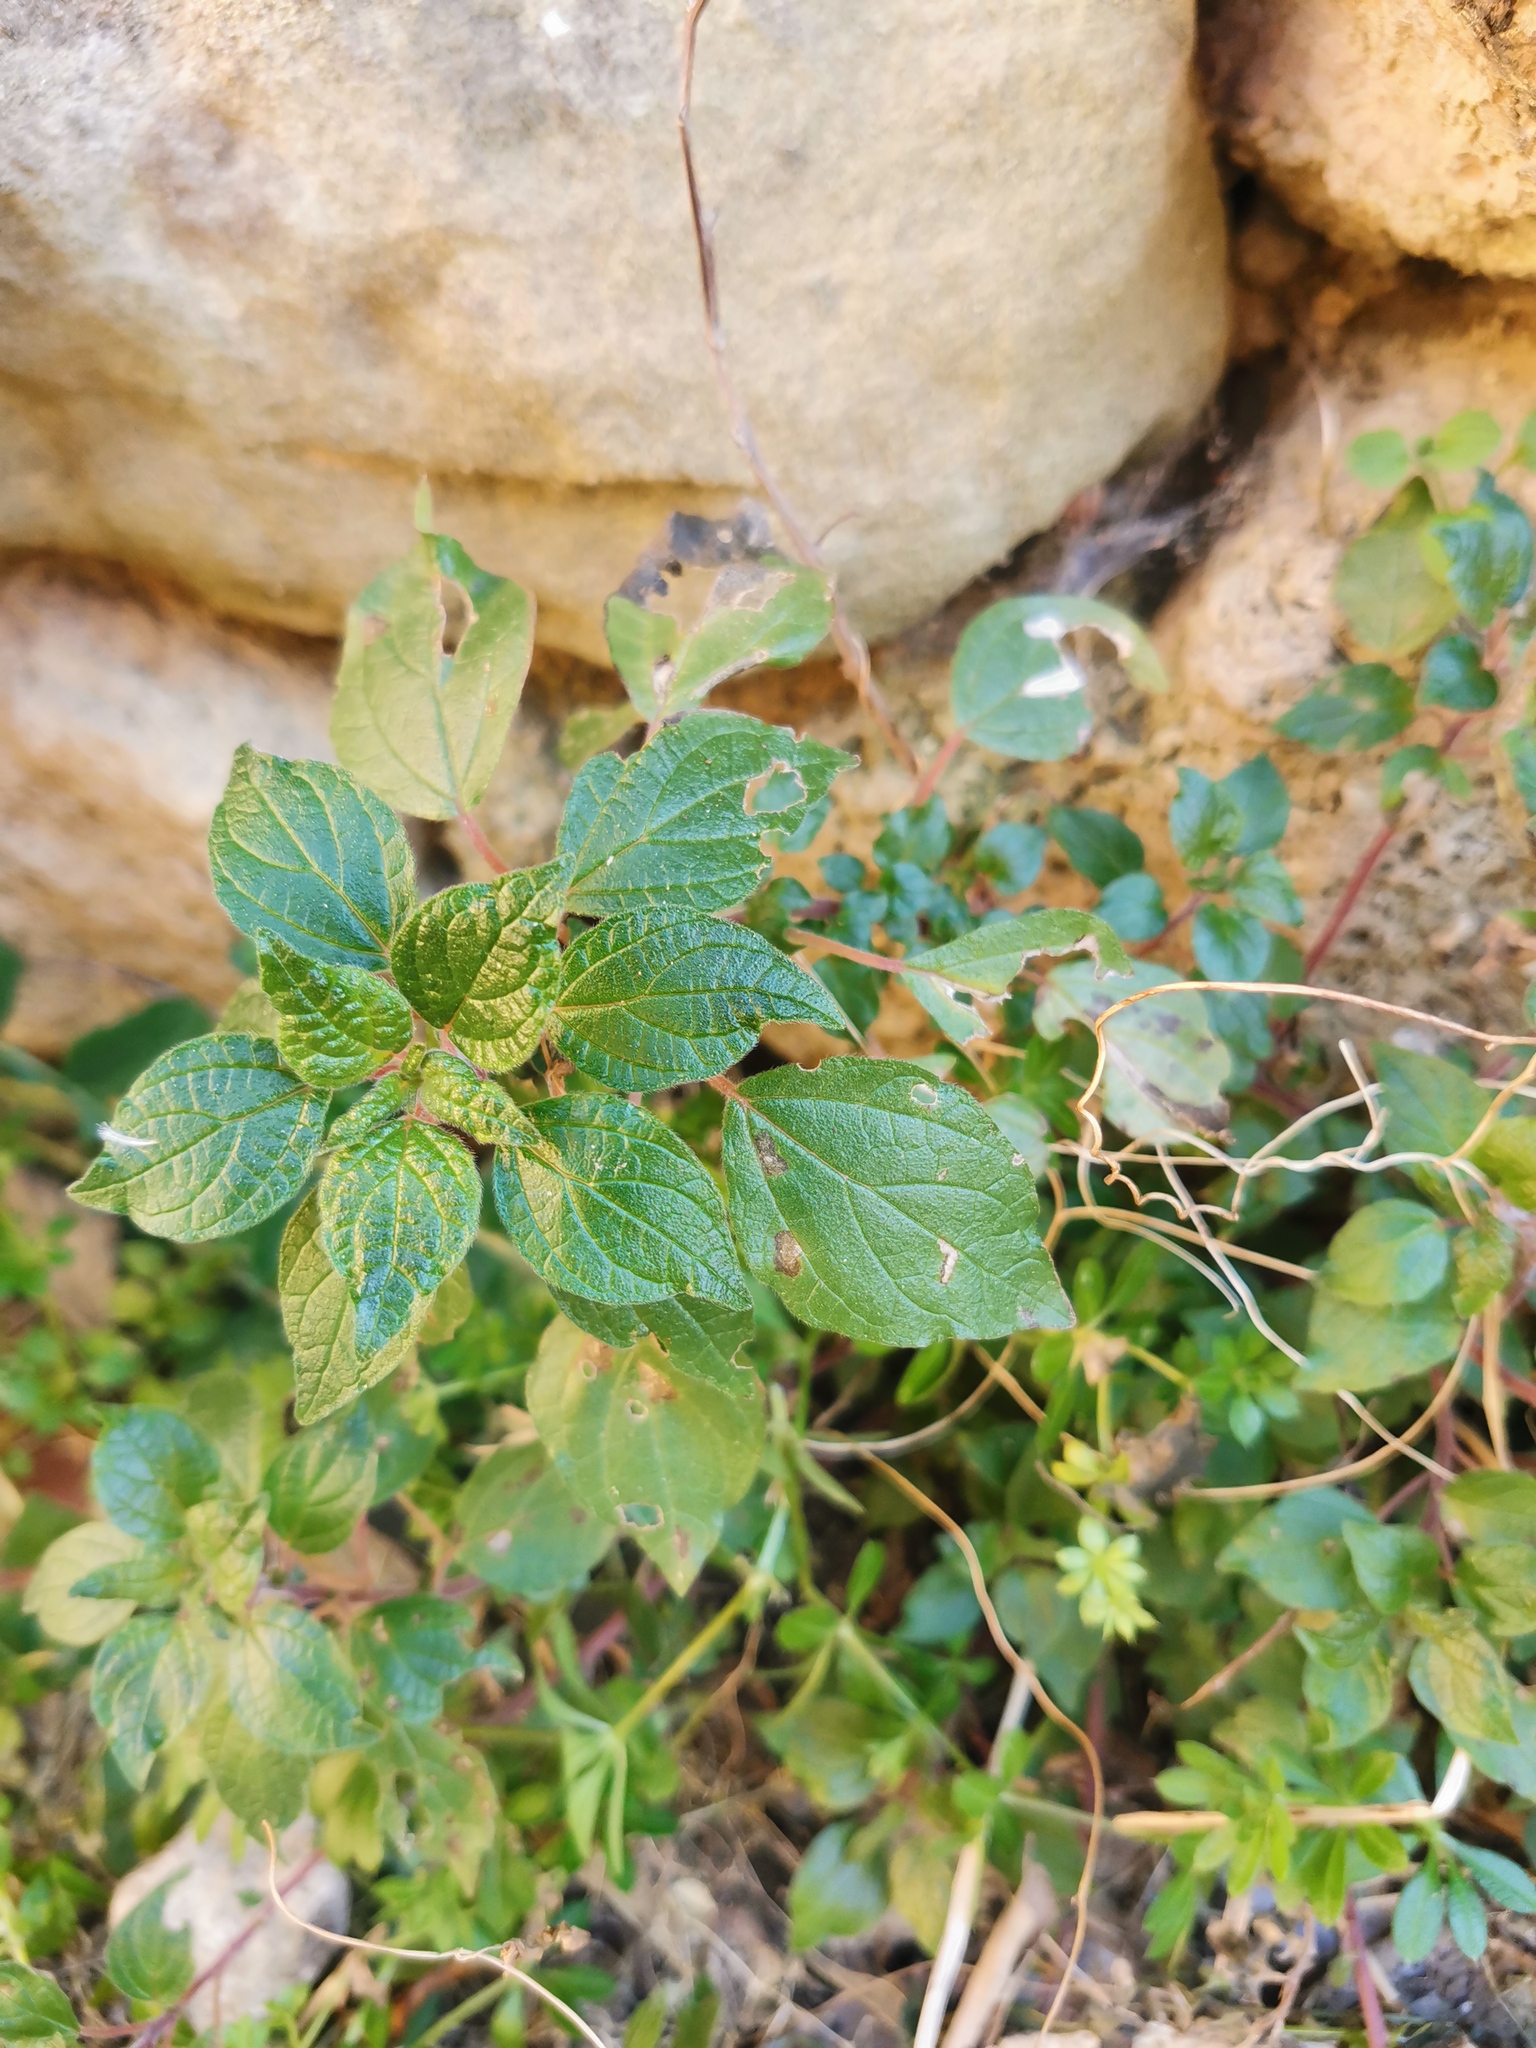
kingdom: Plantae
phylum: Tracheophyta
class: Magnoliopsida
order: Rosales
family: Urticaceae
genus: Parietaria
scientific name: Parietaria judaica
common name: Pellitory-of-the-wall
